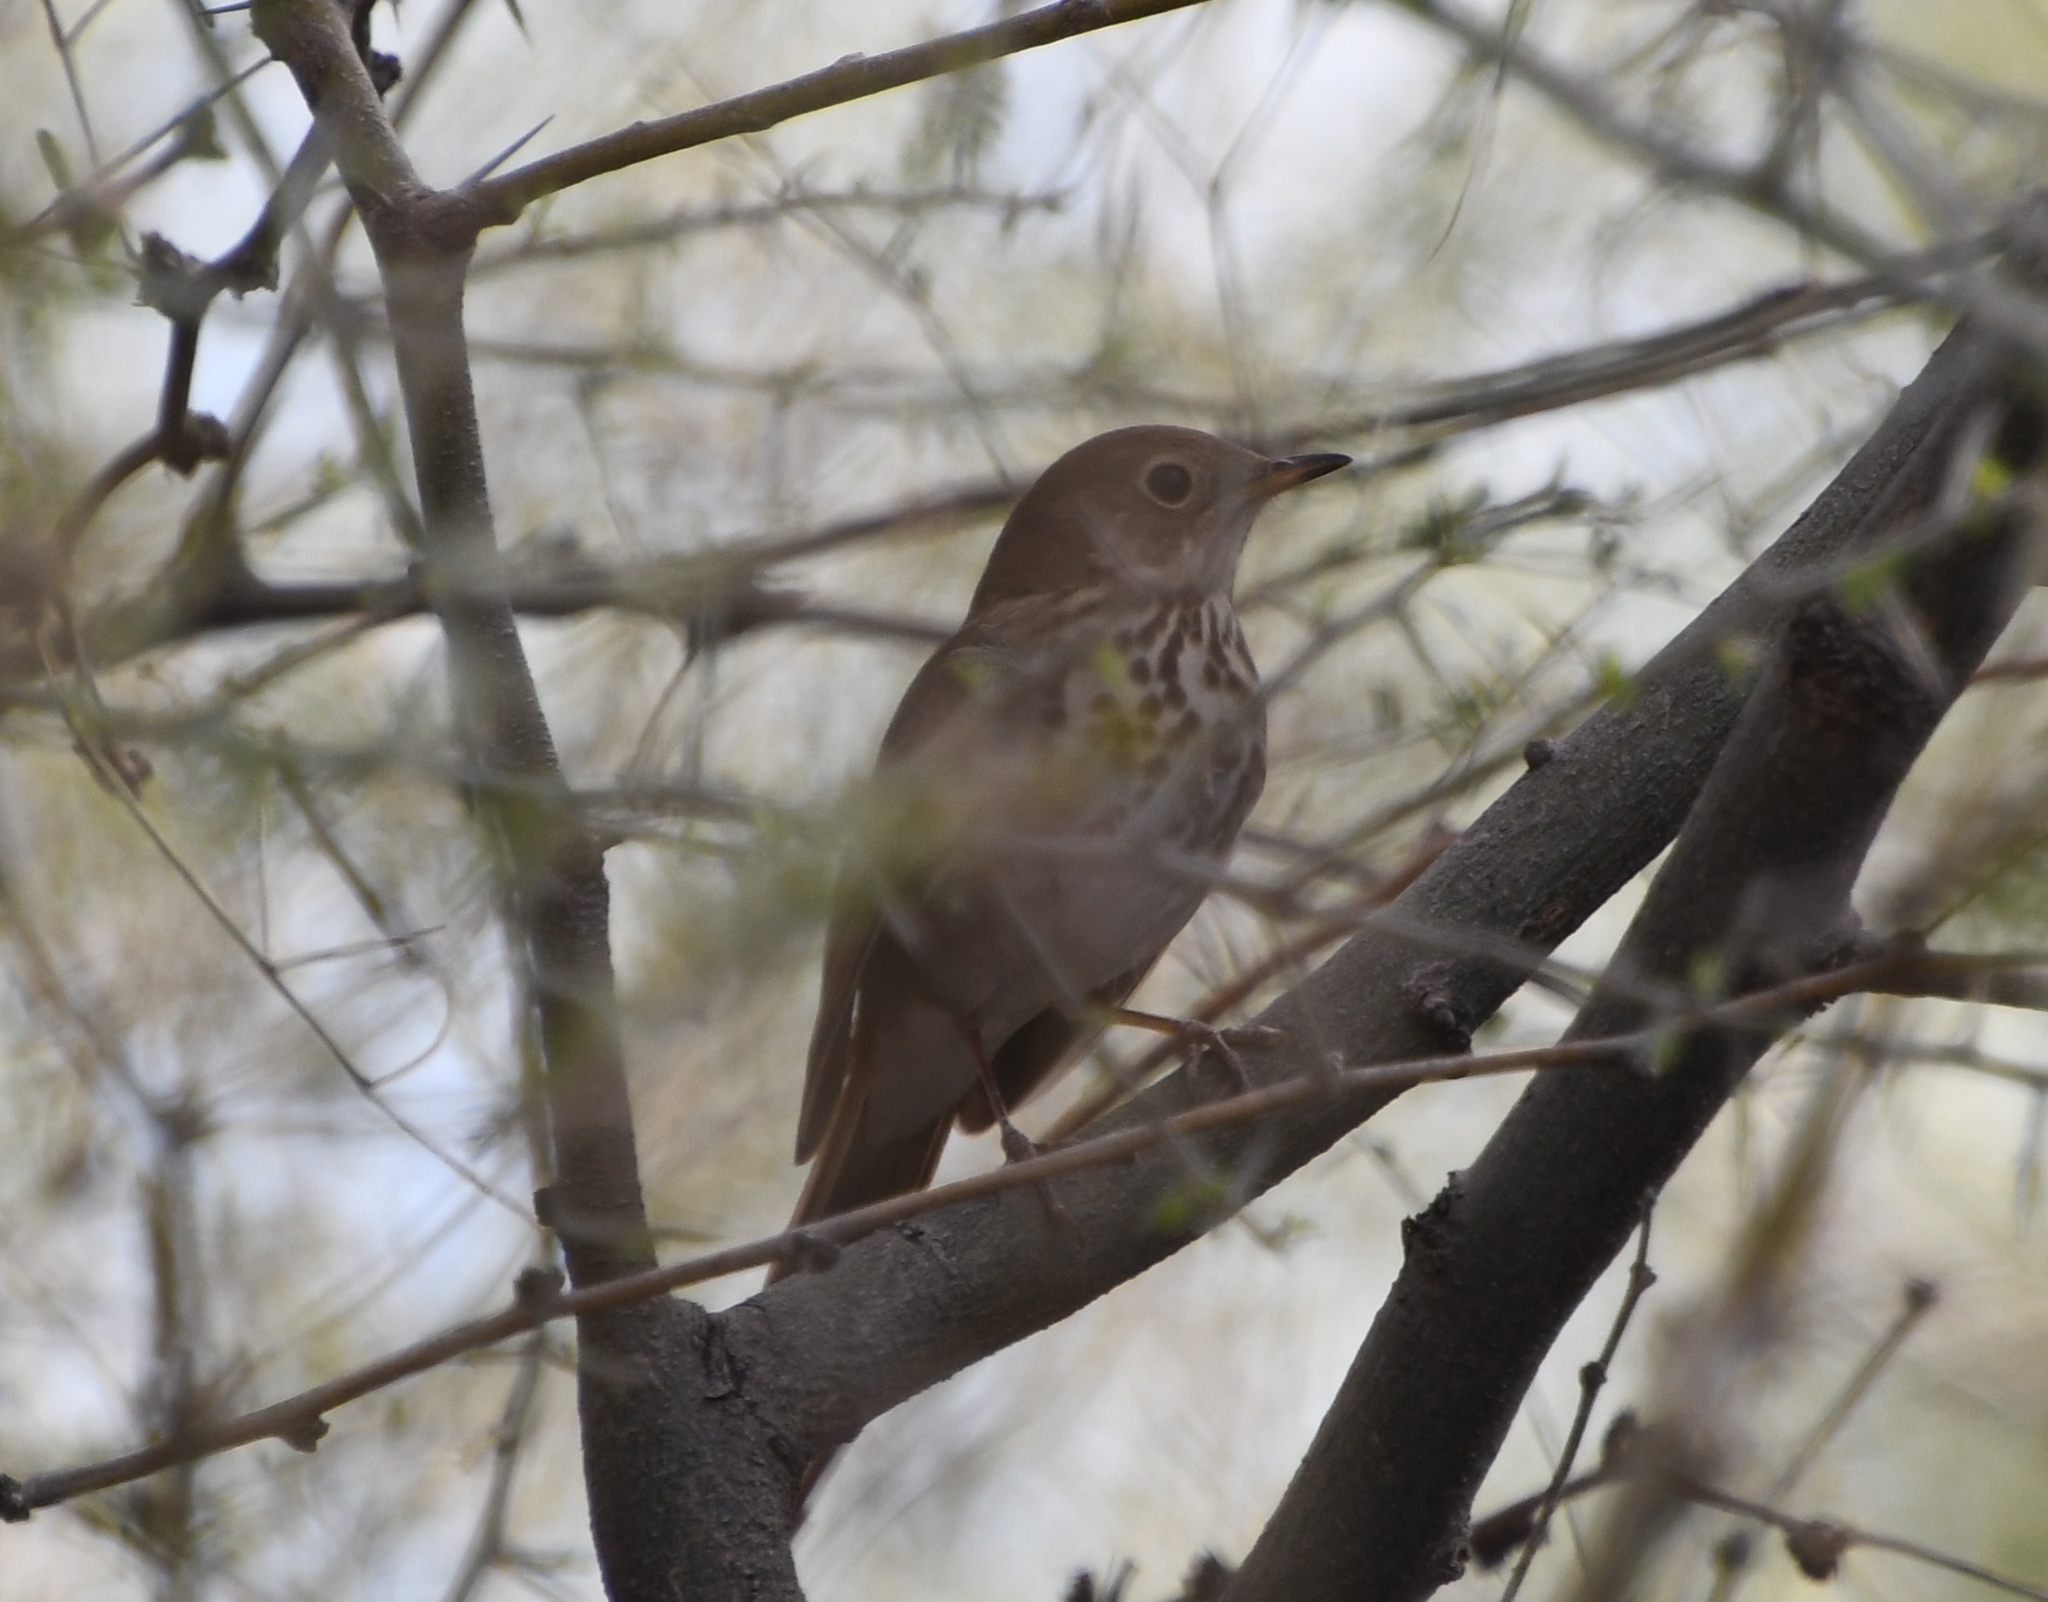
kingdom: Animalia
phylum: Chordata
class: Aves
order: Passeriformes
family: Turdidae
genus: Catharus
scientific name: Catharus guttatus
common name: Hermit thrush
